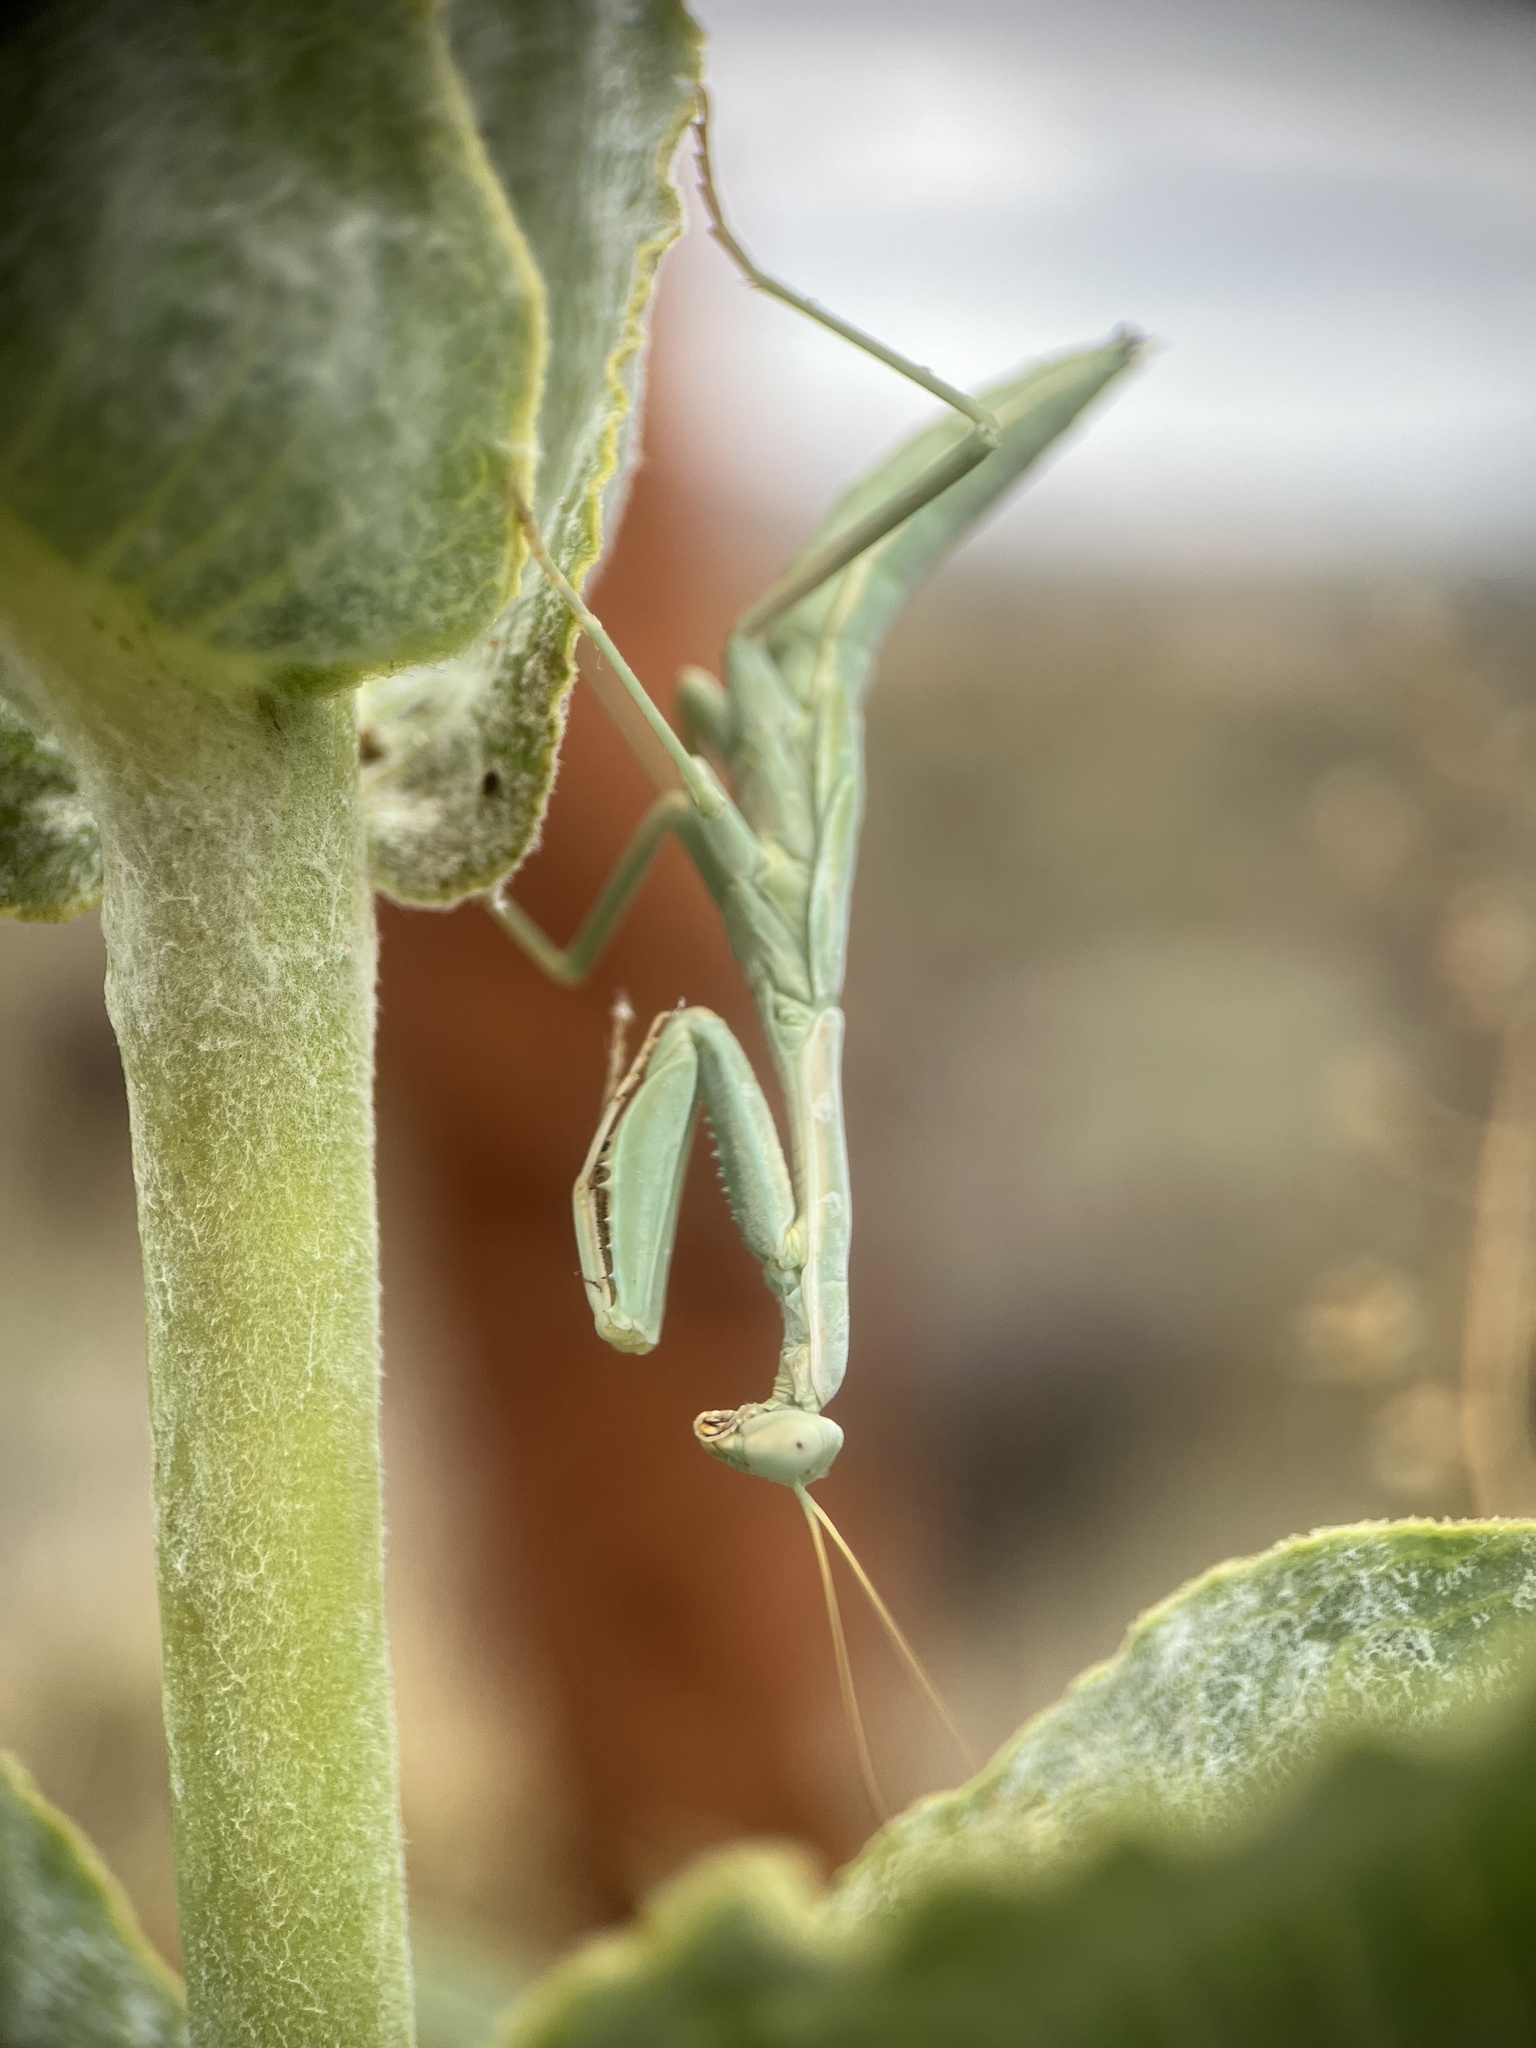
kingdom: Animalia
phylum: Arthropoda
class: Insecta
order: Mantodea
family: Eremiaphilidae
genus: Iris
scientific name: Iris oratoria
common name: Mediterranean mantis
